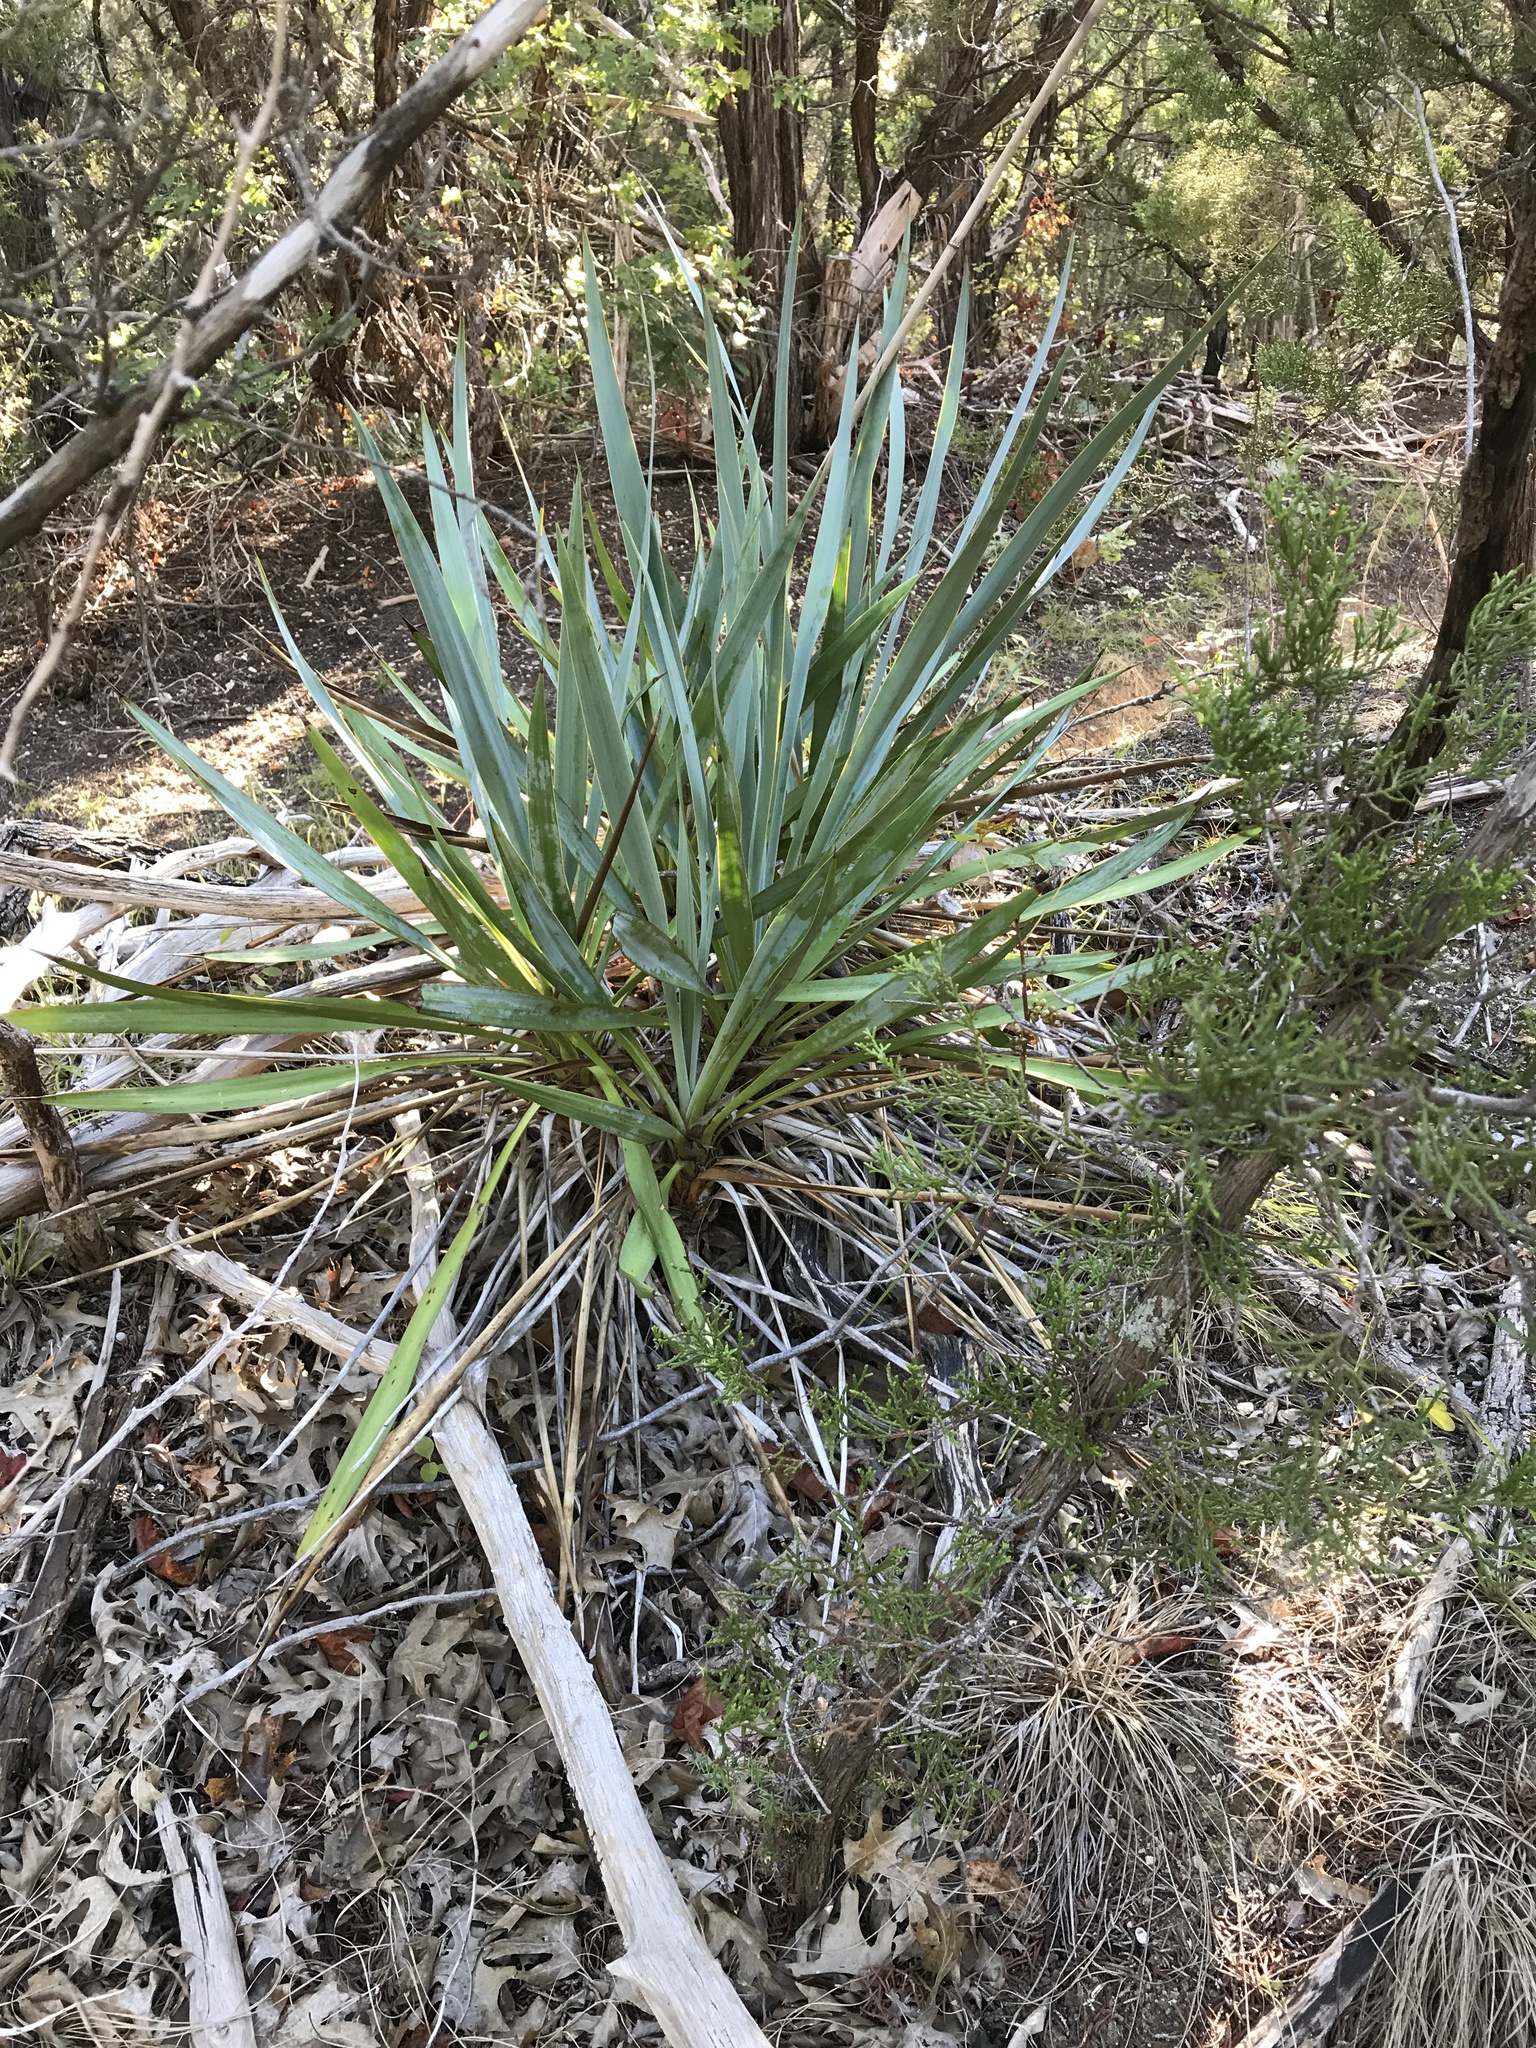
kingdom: Plantae
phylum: Tracheophyta
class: Liliopsida
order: Asparagales
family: Asparagaceae
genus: Yucca
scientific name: Yucca pallida
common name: Pale leaf yucca
